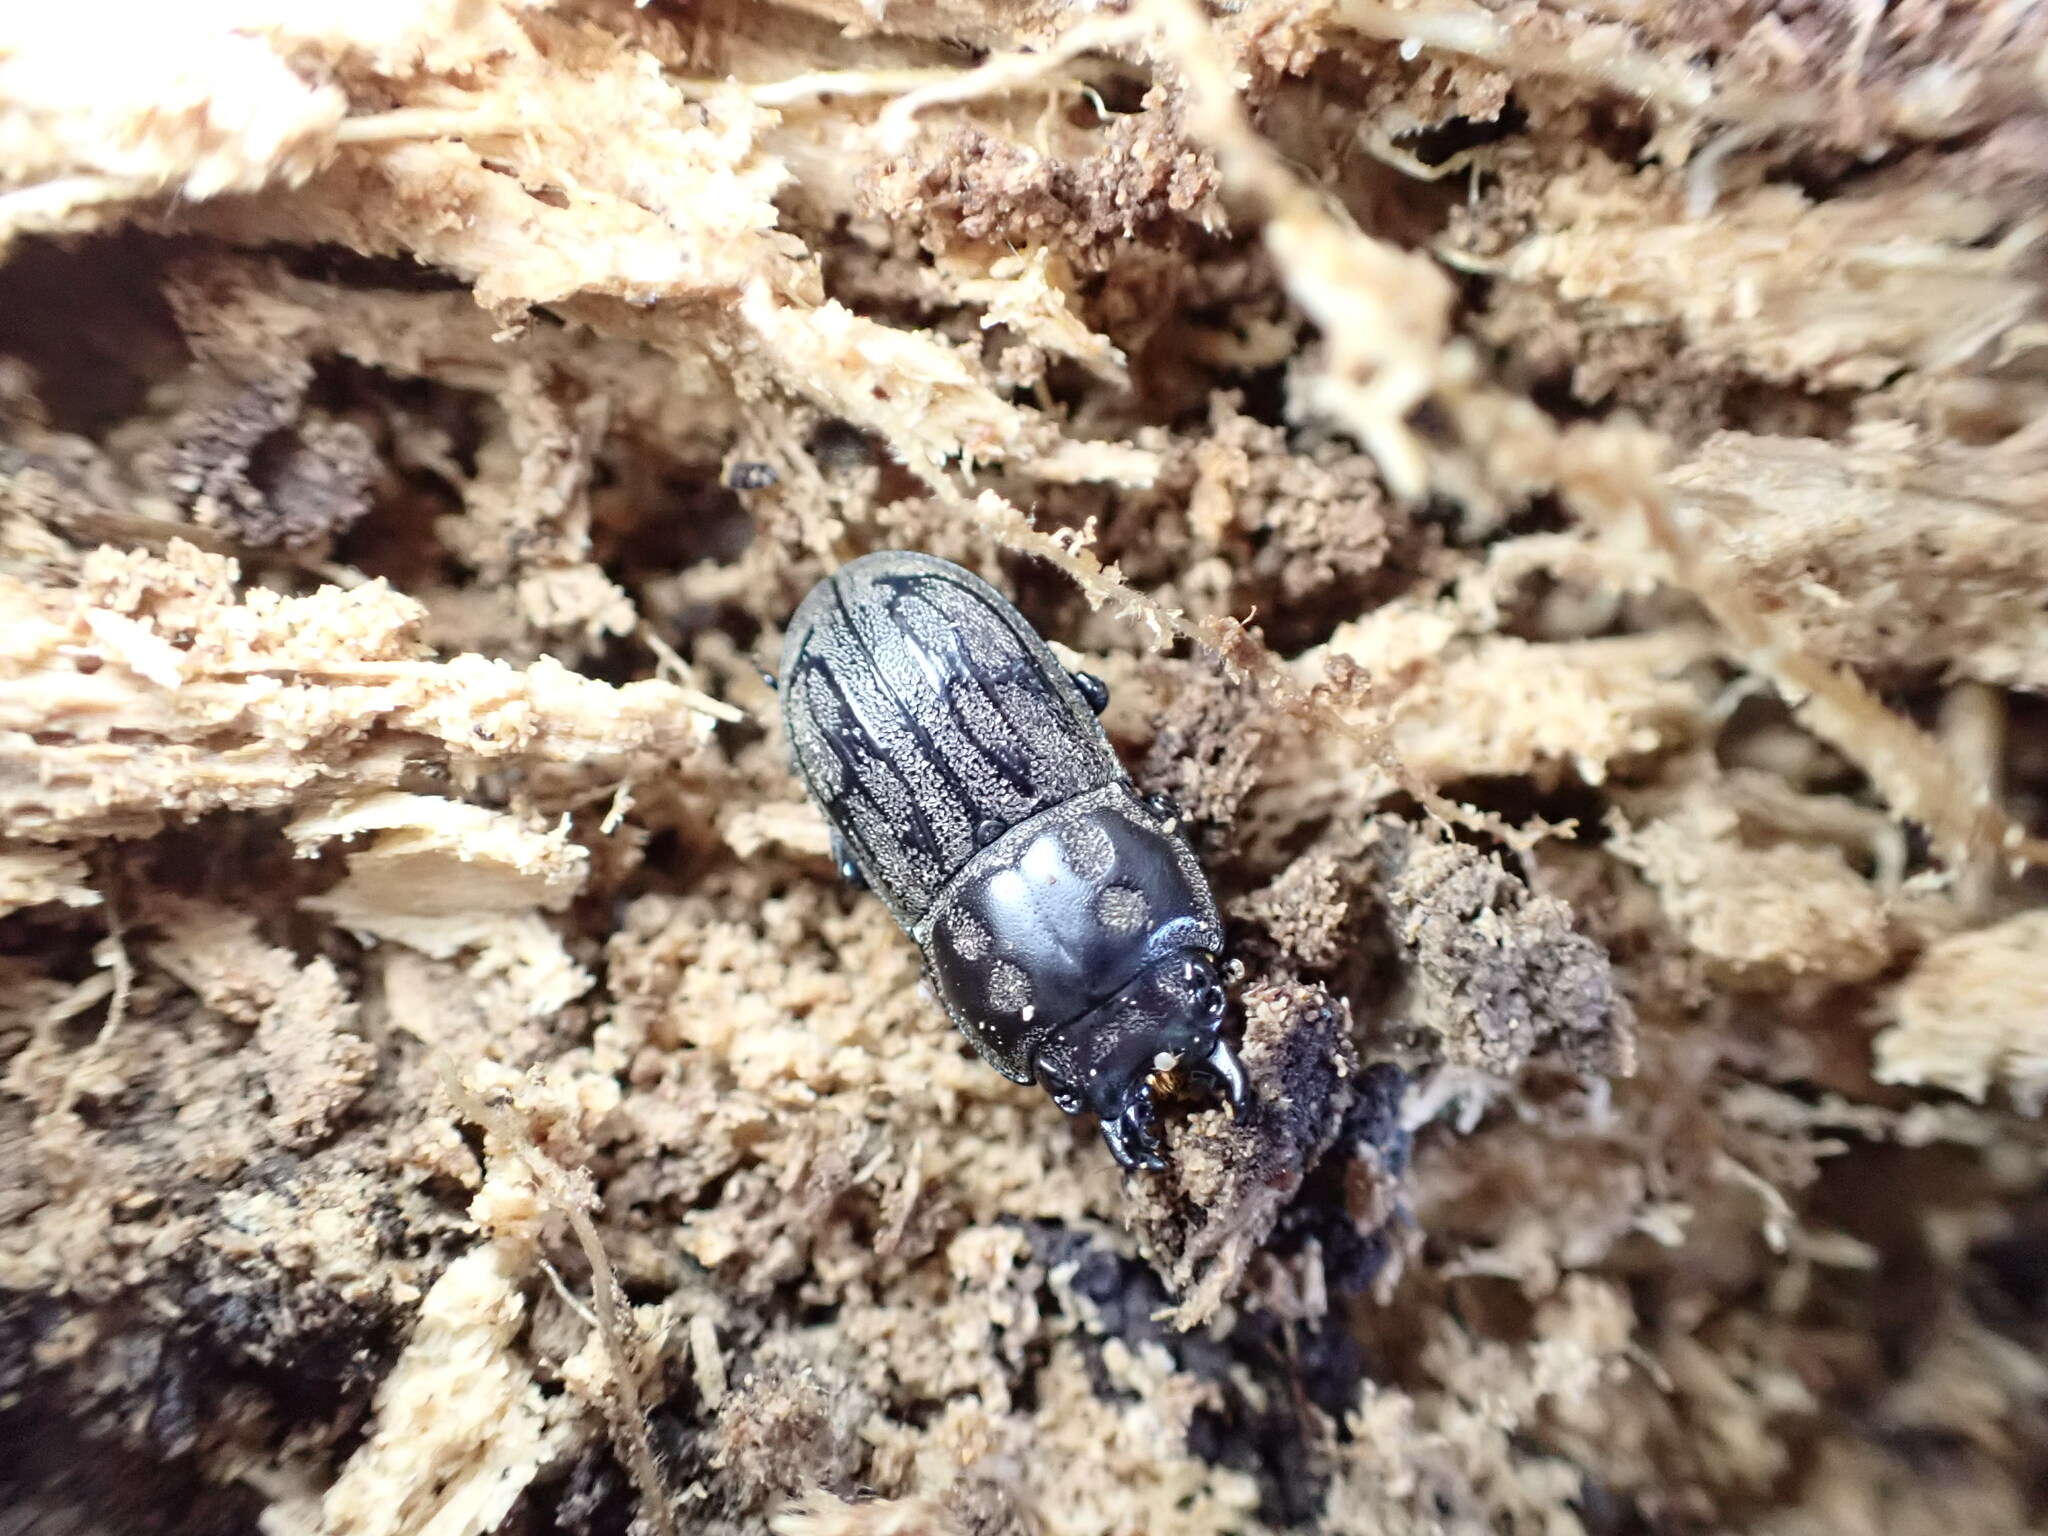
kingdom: Animalia
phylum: Arthropoda
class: Insecta
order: Coleoptera
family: Lucanidae
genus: Paralissotes
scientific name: Paralissotes reticulatus
